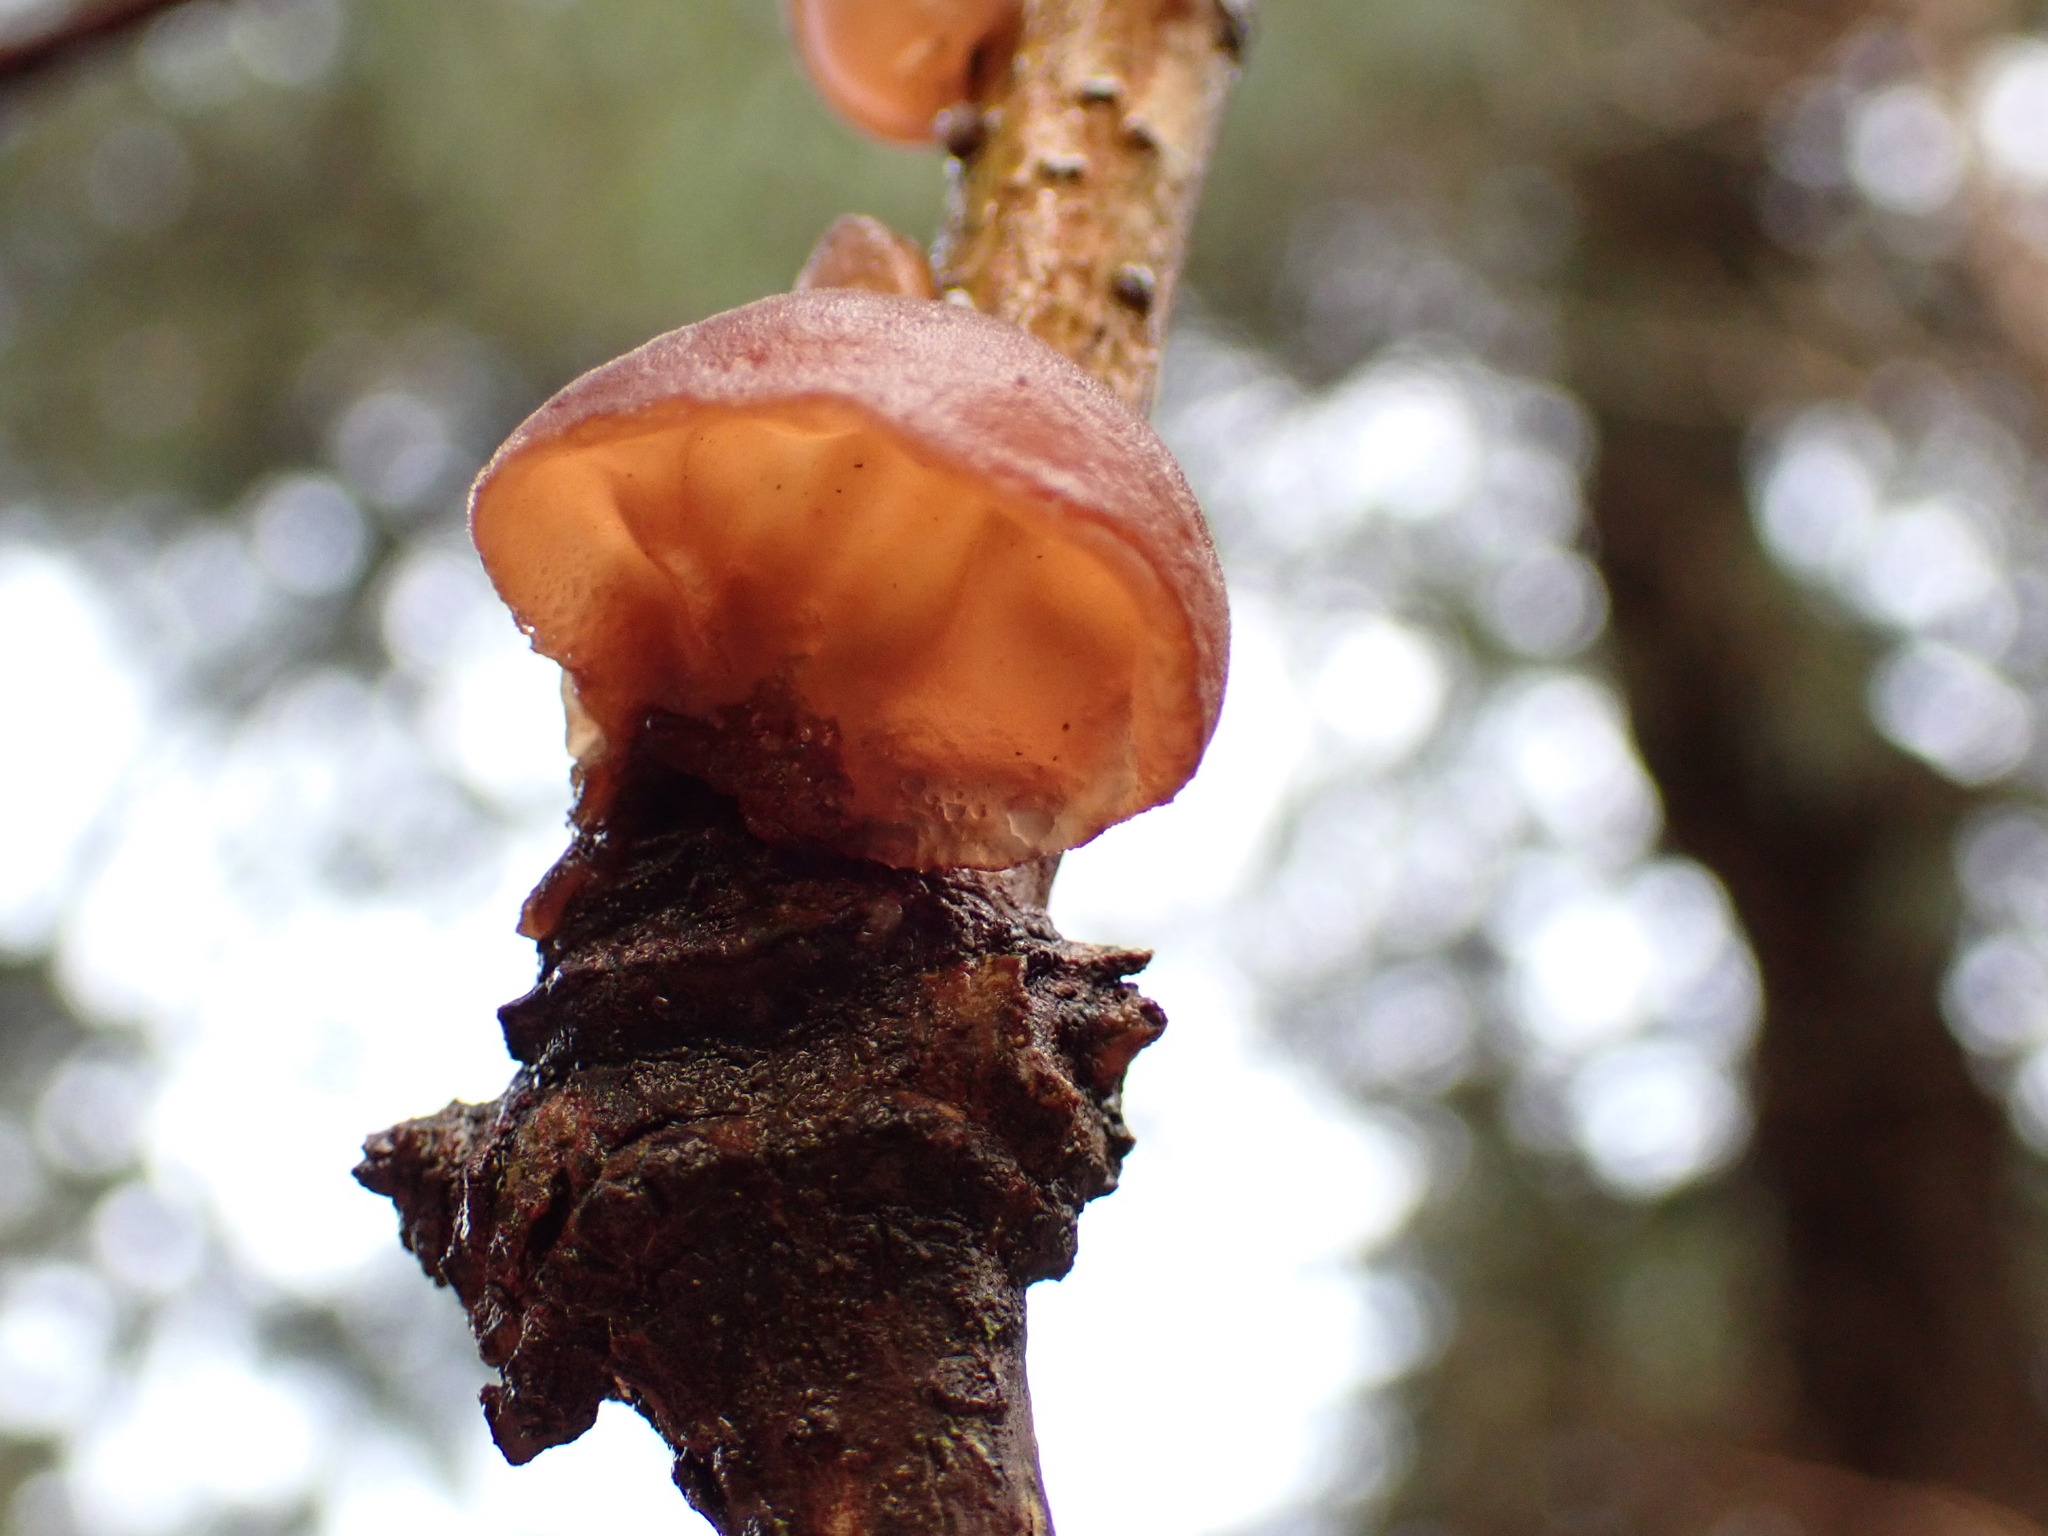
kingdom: Fungi
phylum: Basidiomycota
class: Agaricomycetes
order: Auriculariales
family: Auriculariaceae
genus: Auricularia
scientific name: Auricularia auricula-judae
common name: Jelly ear
